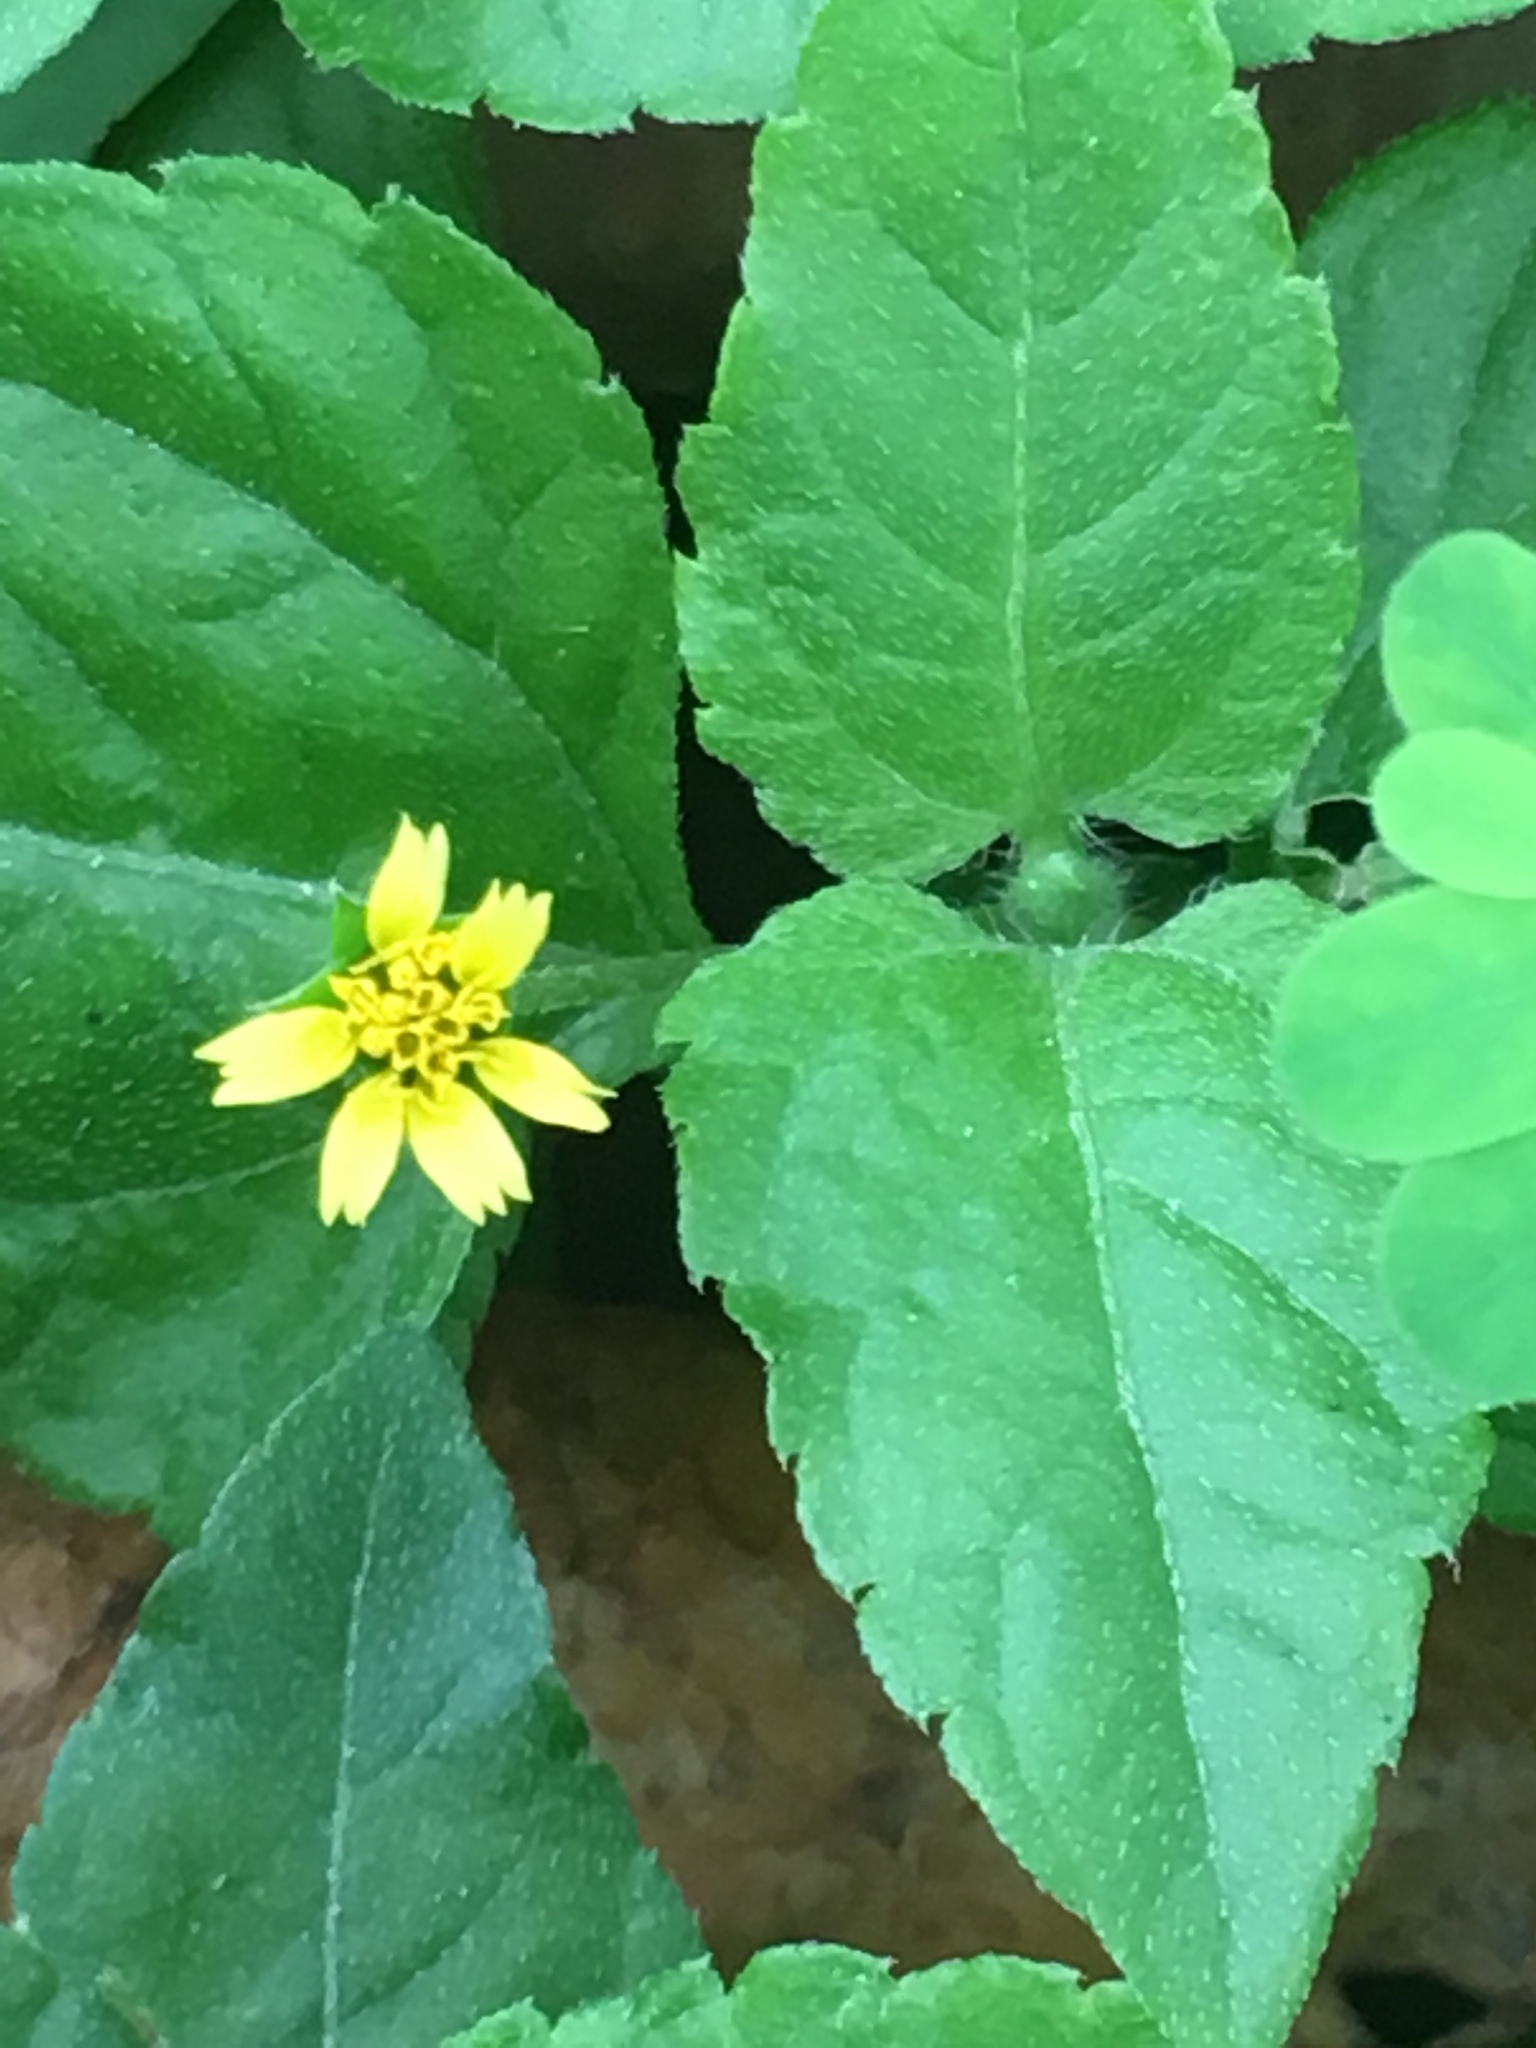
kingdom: Plantae
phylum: Tracheophyta
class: Magnoliopsida
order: Asterales
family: Asteraceae
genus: Calyptocarpus
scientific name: Calyptocarpus vialis
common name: Straggler daisy
